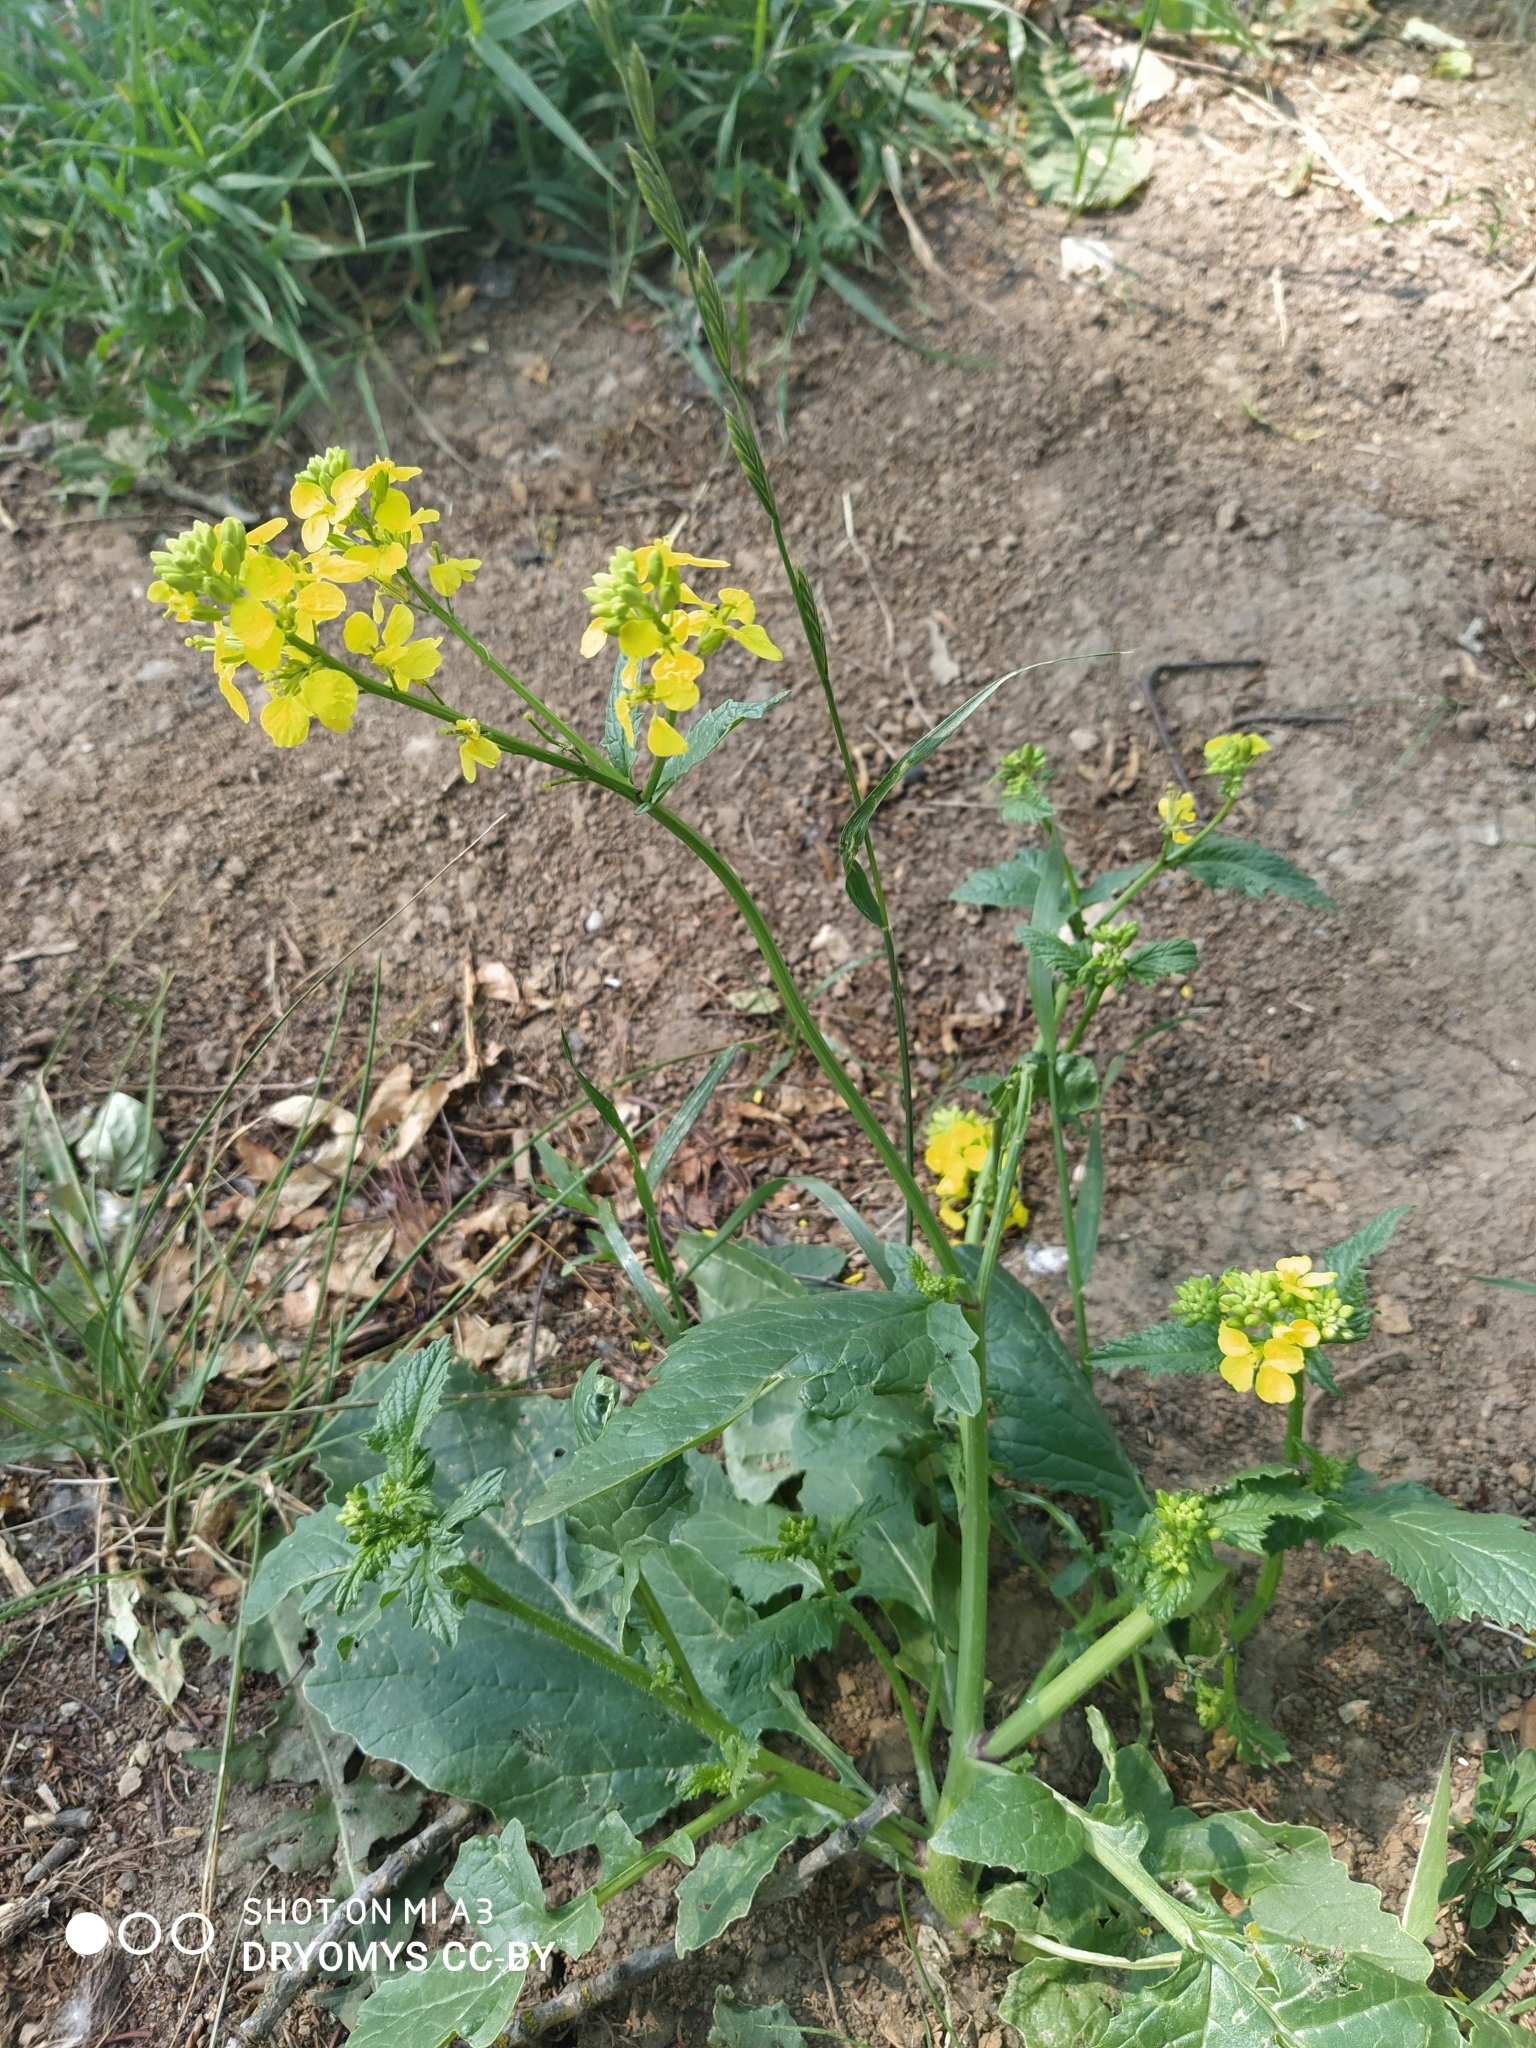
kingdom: Plantae
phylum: Tracheophyta
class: Magnoliopsida
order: Brassicales
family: Brassicaceae
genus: Sinapis
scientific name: Sinapis arvensis
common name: Charlock
